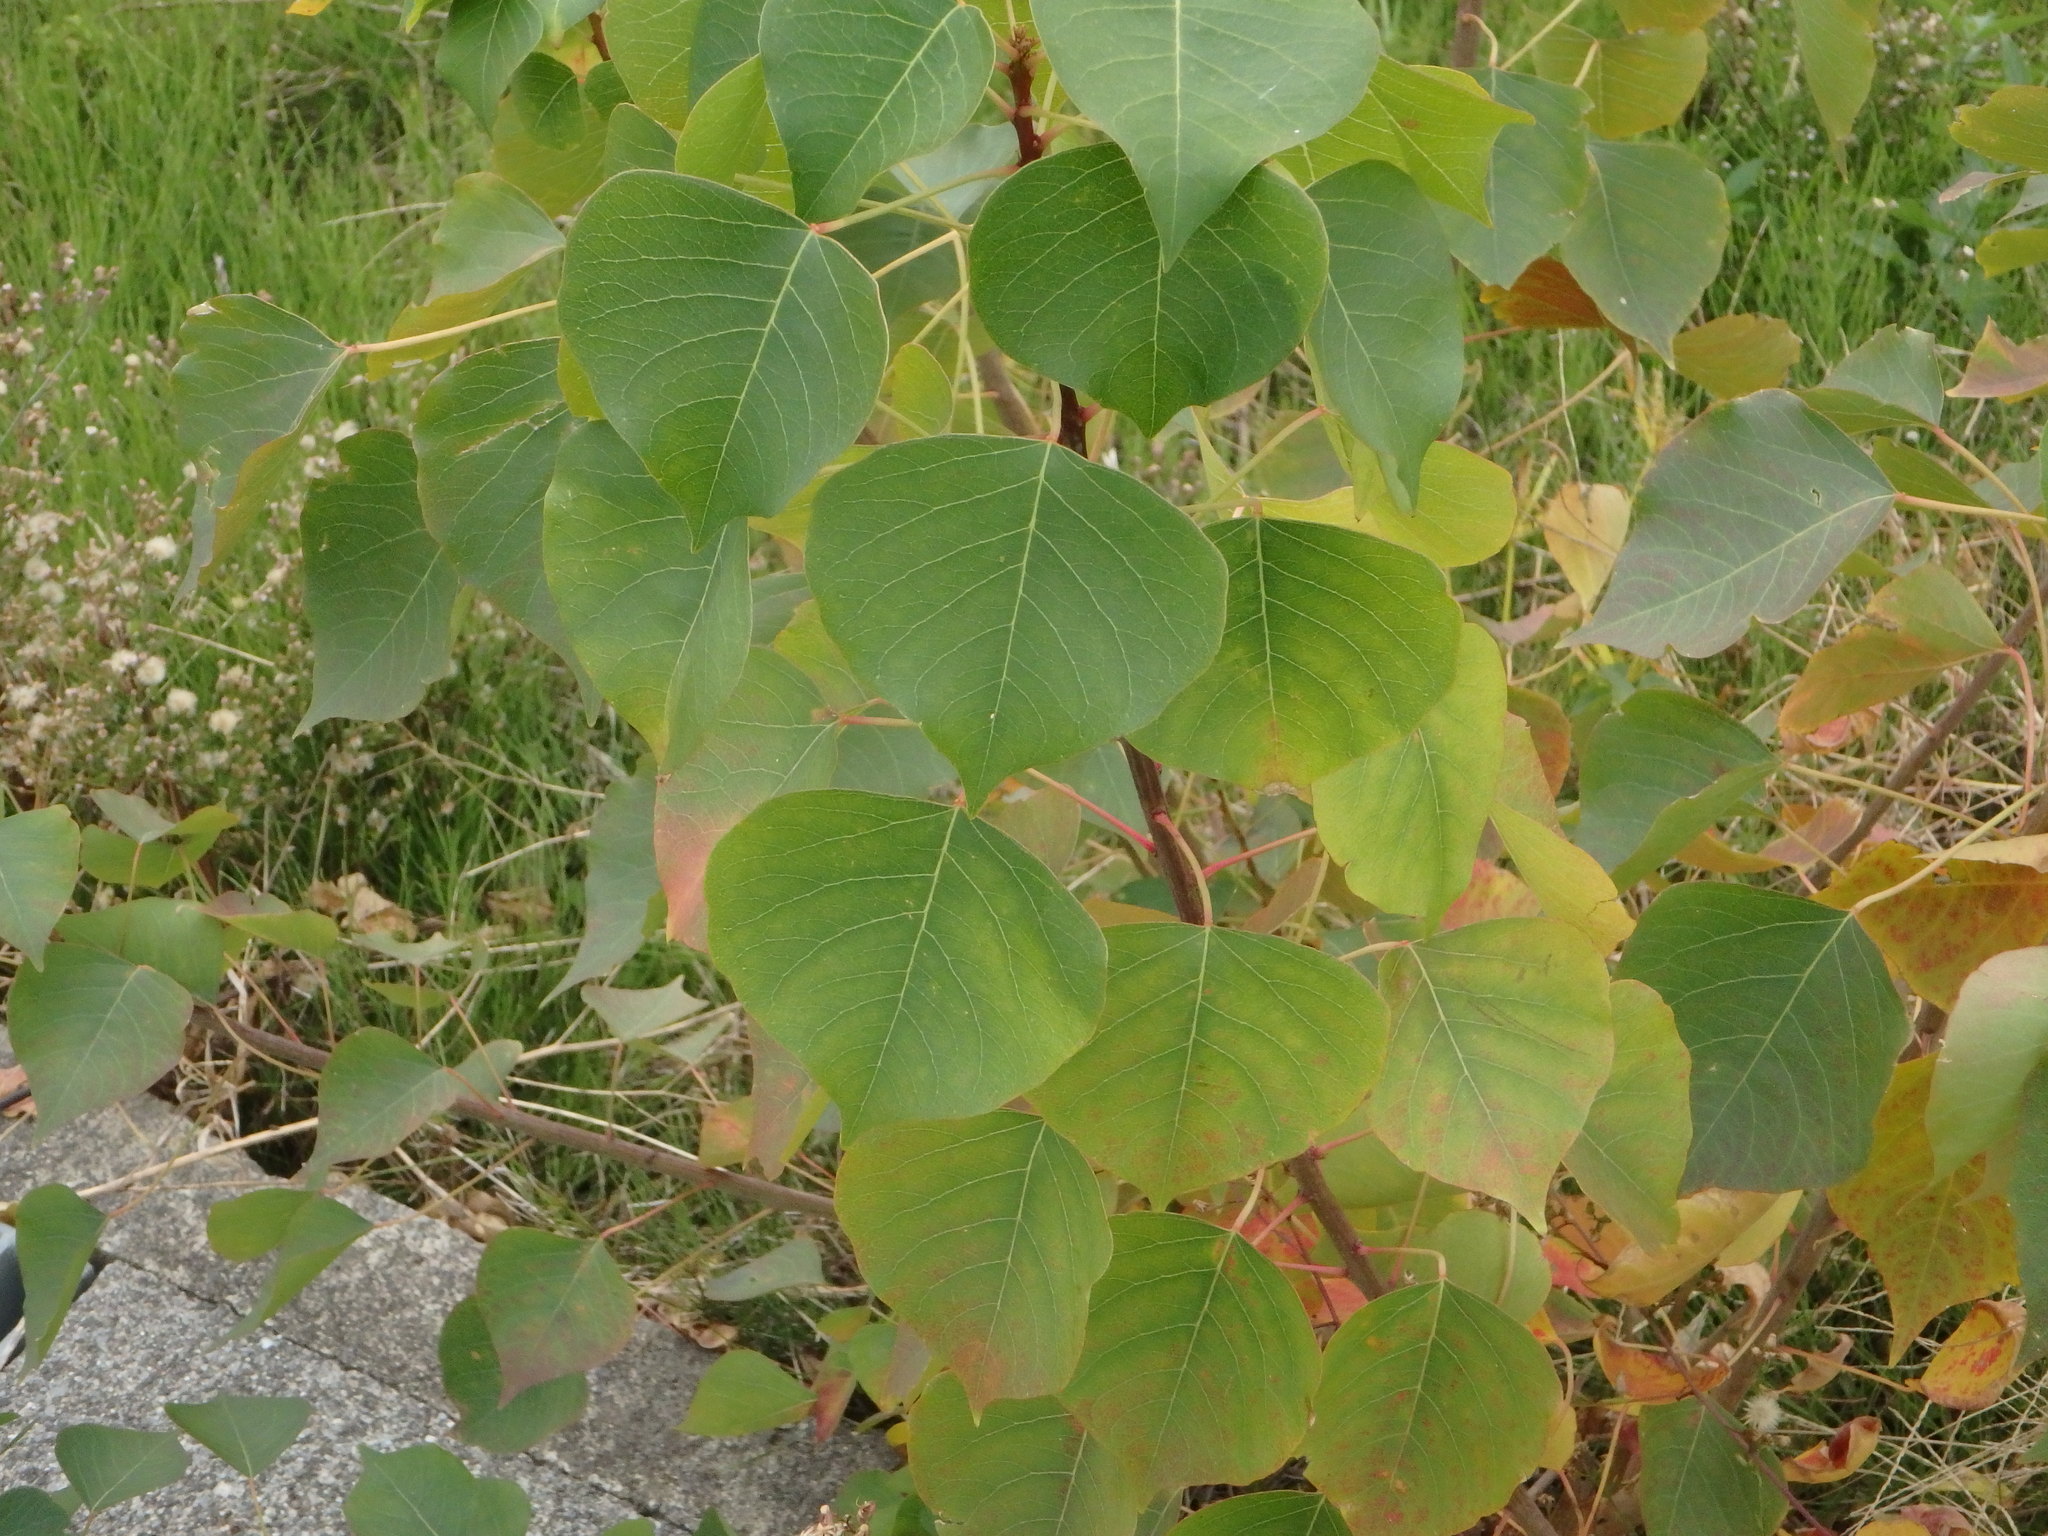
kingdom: Plantae
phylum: Tracheophyta
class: Magnoliopsida
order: Malpighiales
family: Euphorbiaceae
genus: Triadica
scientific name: Triadica sebifera
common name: Chinese tallow
